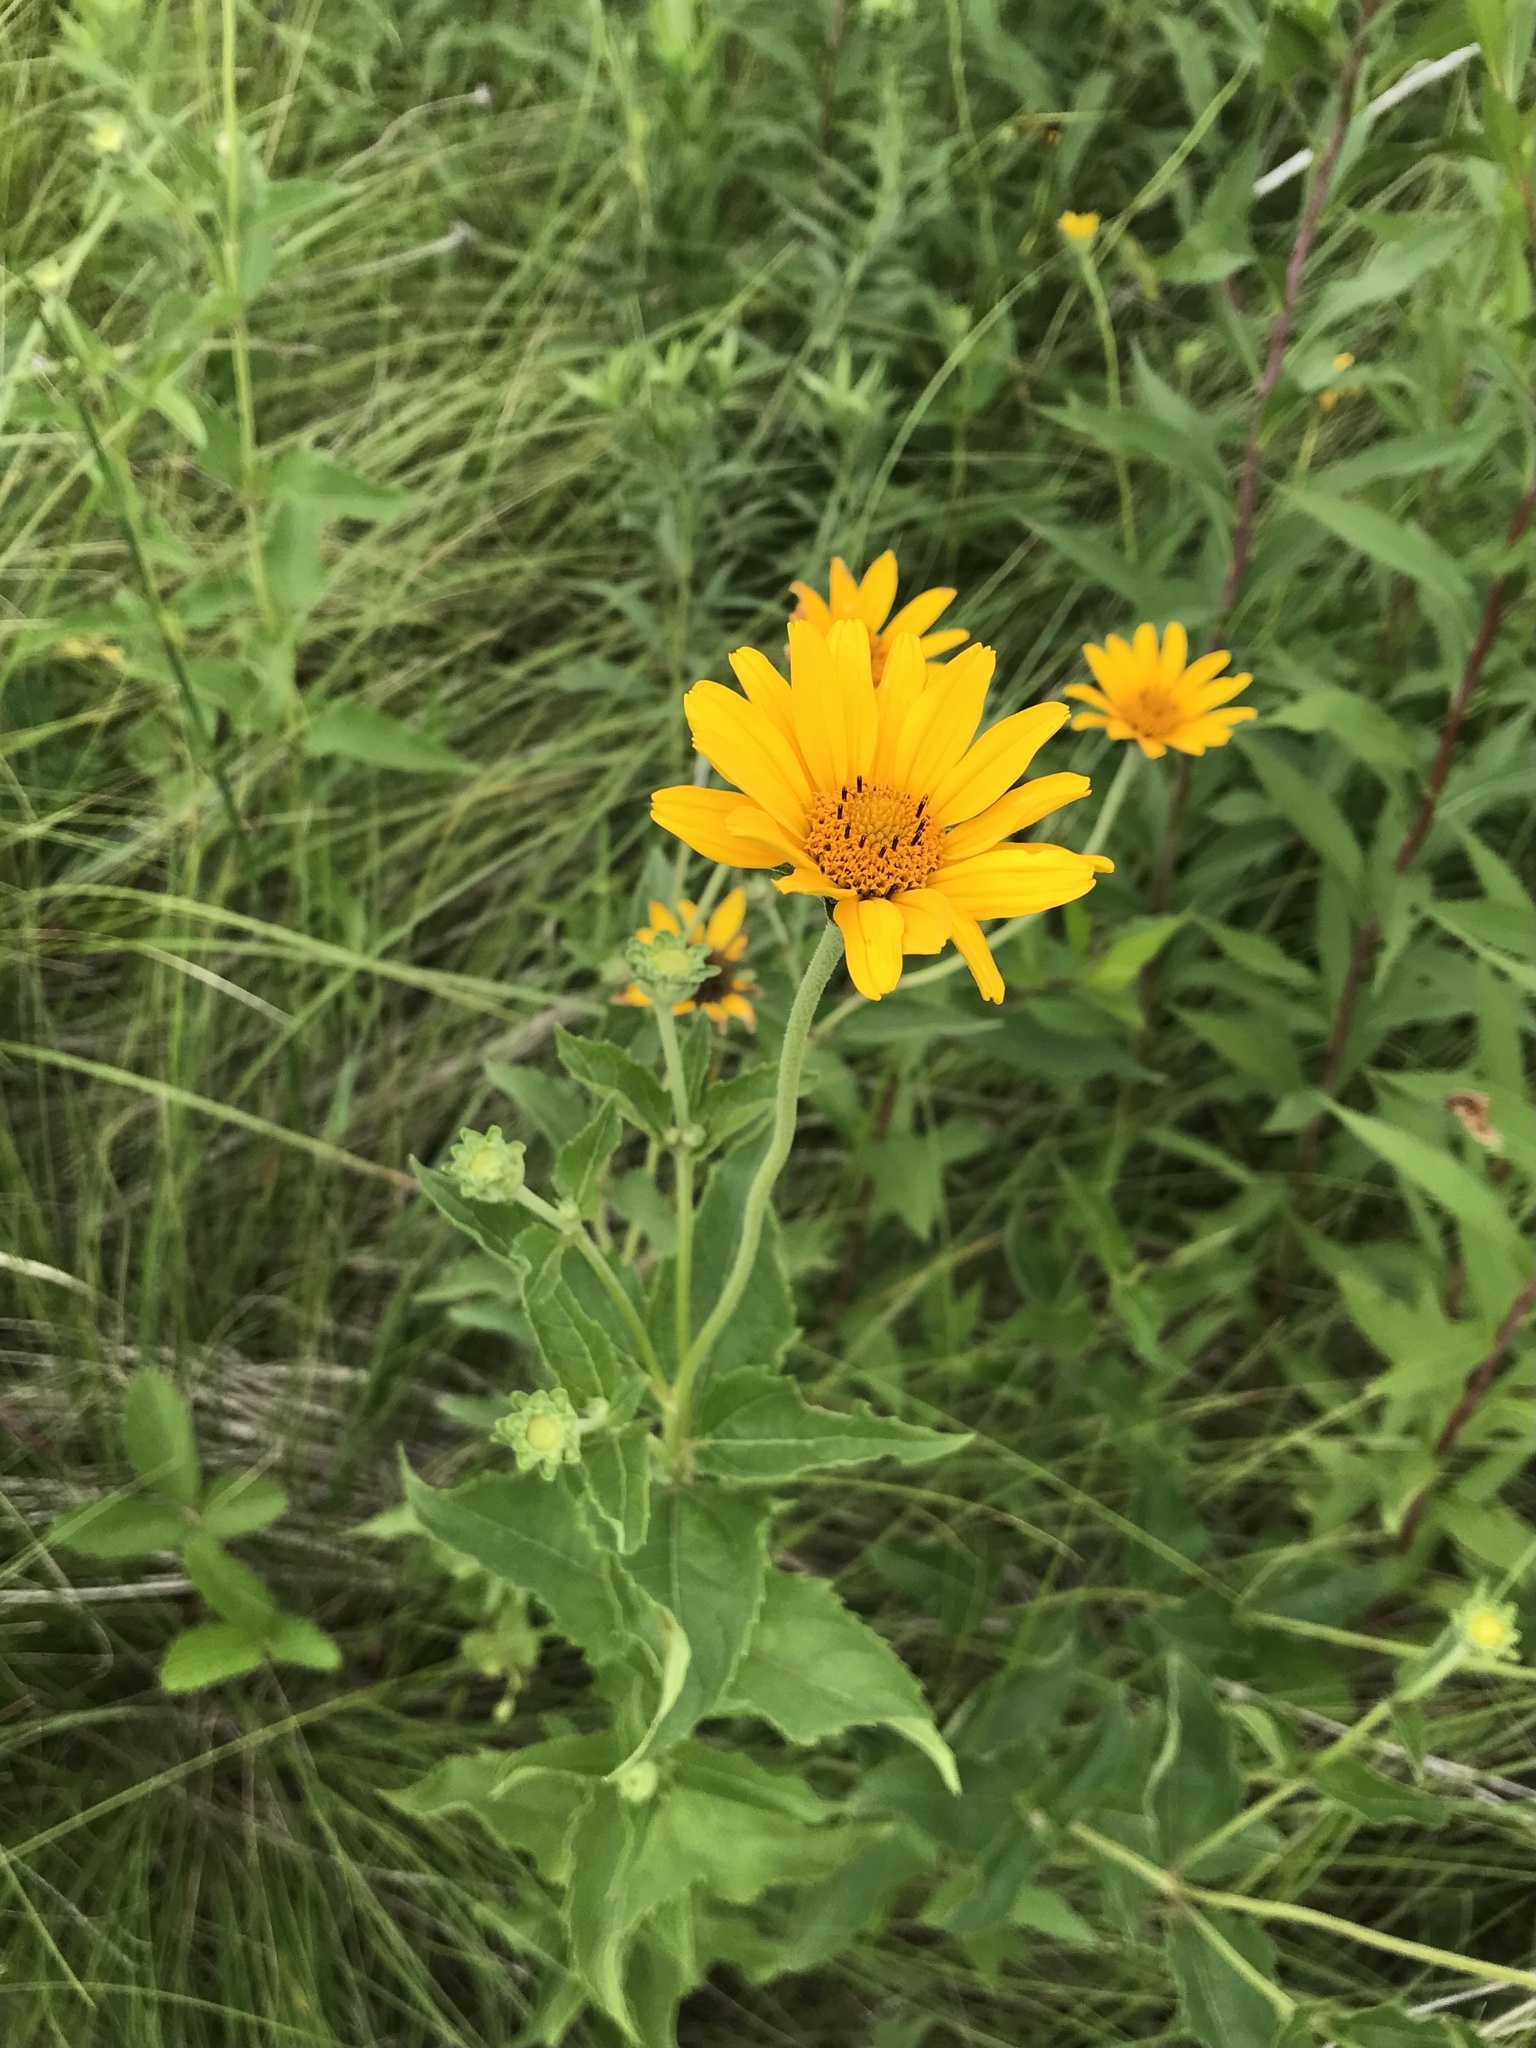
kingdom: Plantae
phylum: Tracheophyta
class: Magnoliopsida
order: Asterales
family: Asteraceae
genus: Heliopsis
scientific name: Heliopsis helianthoides
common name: False sunflower
